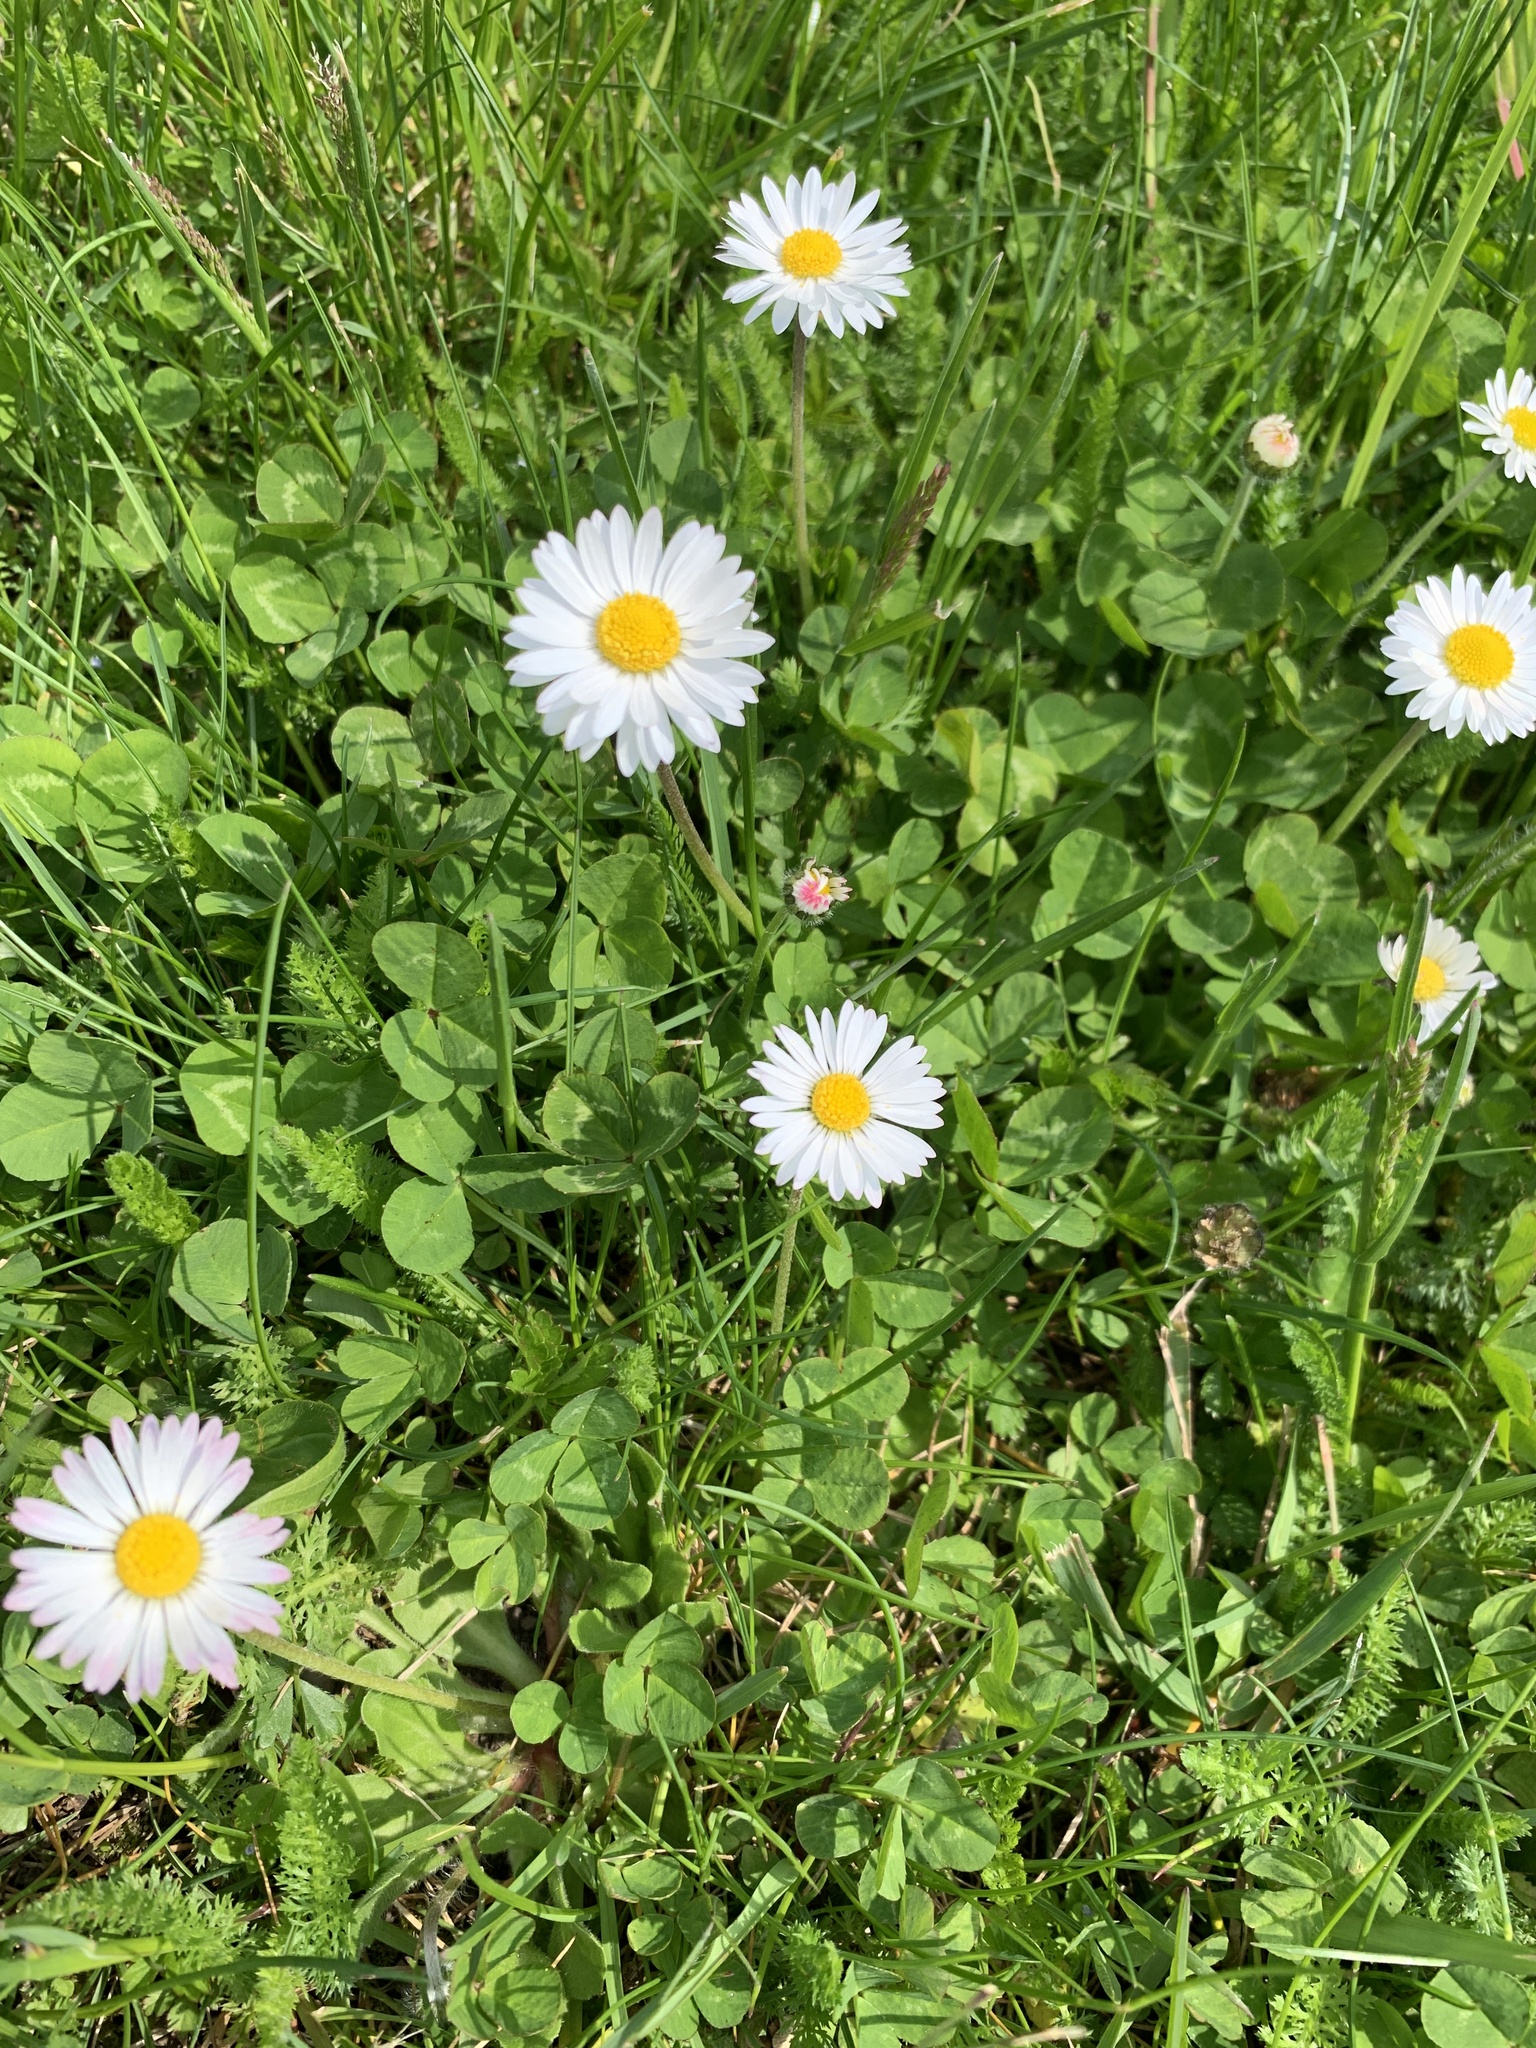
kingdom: Plantae
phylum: Tracheophyta
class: Magnoliopsida
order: Asterales
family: Asteraceae
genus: Bellis
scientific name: Bellis perennis
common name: Lawndaisy
